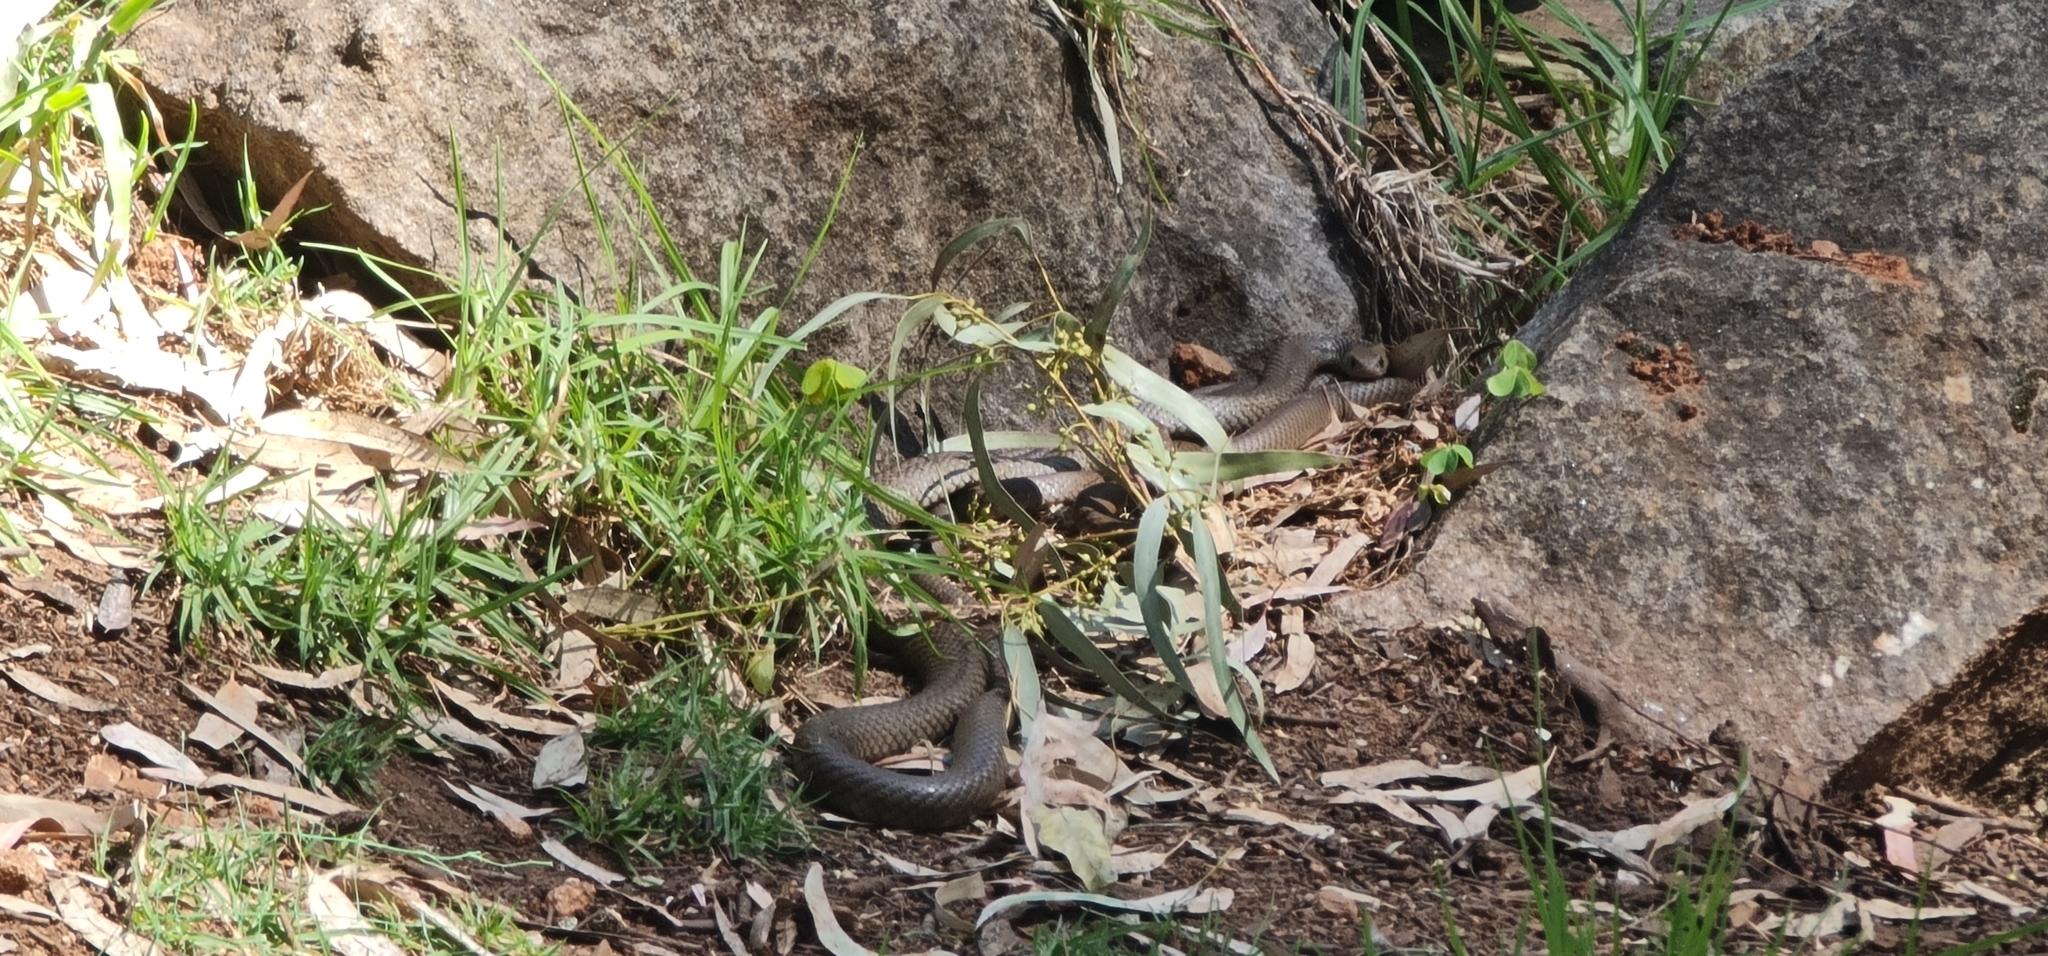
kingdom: Animalia
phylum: Chordata
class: Squamata
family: Elapidae
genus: Pseudonaja
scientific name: Pseudonaja textilis
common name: Eastern brown snake
